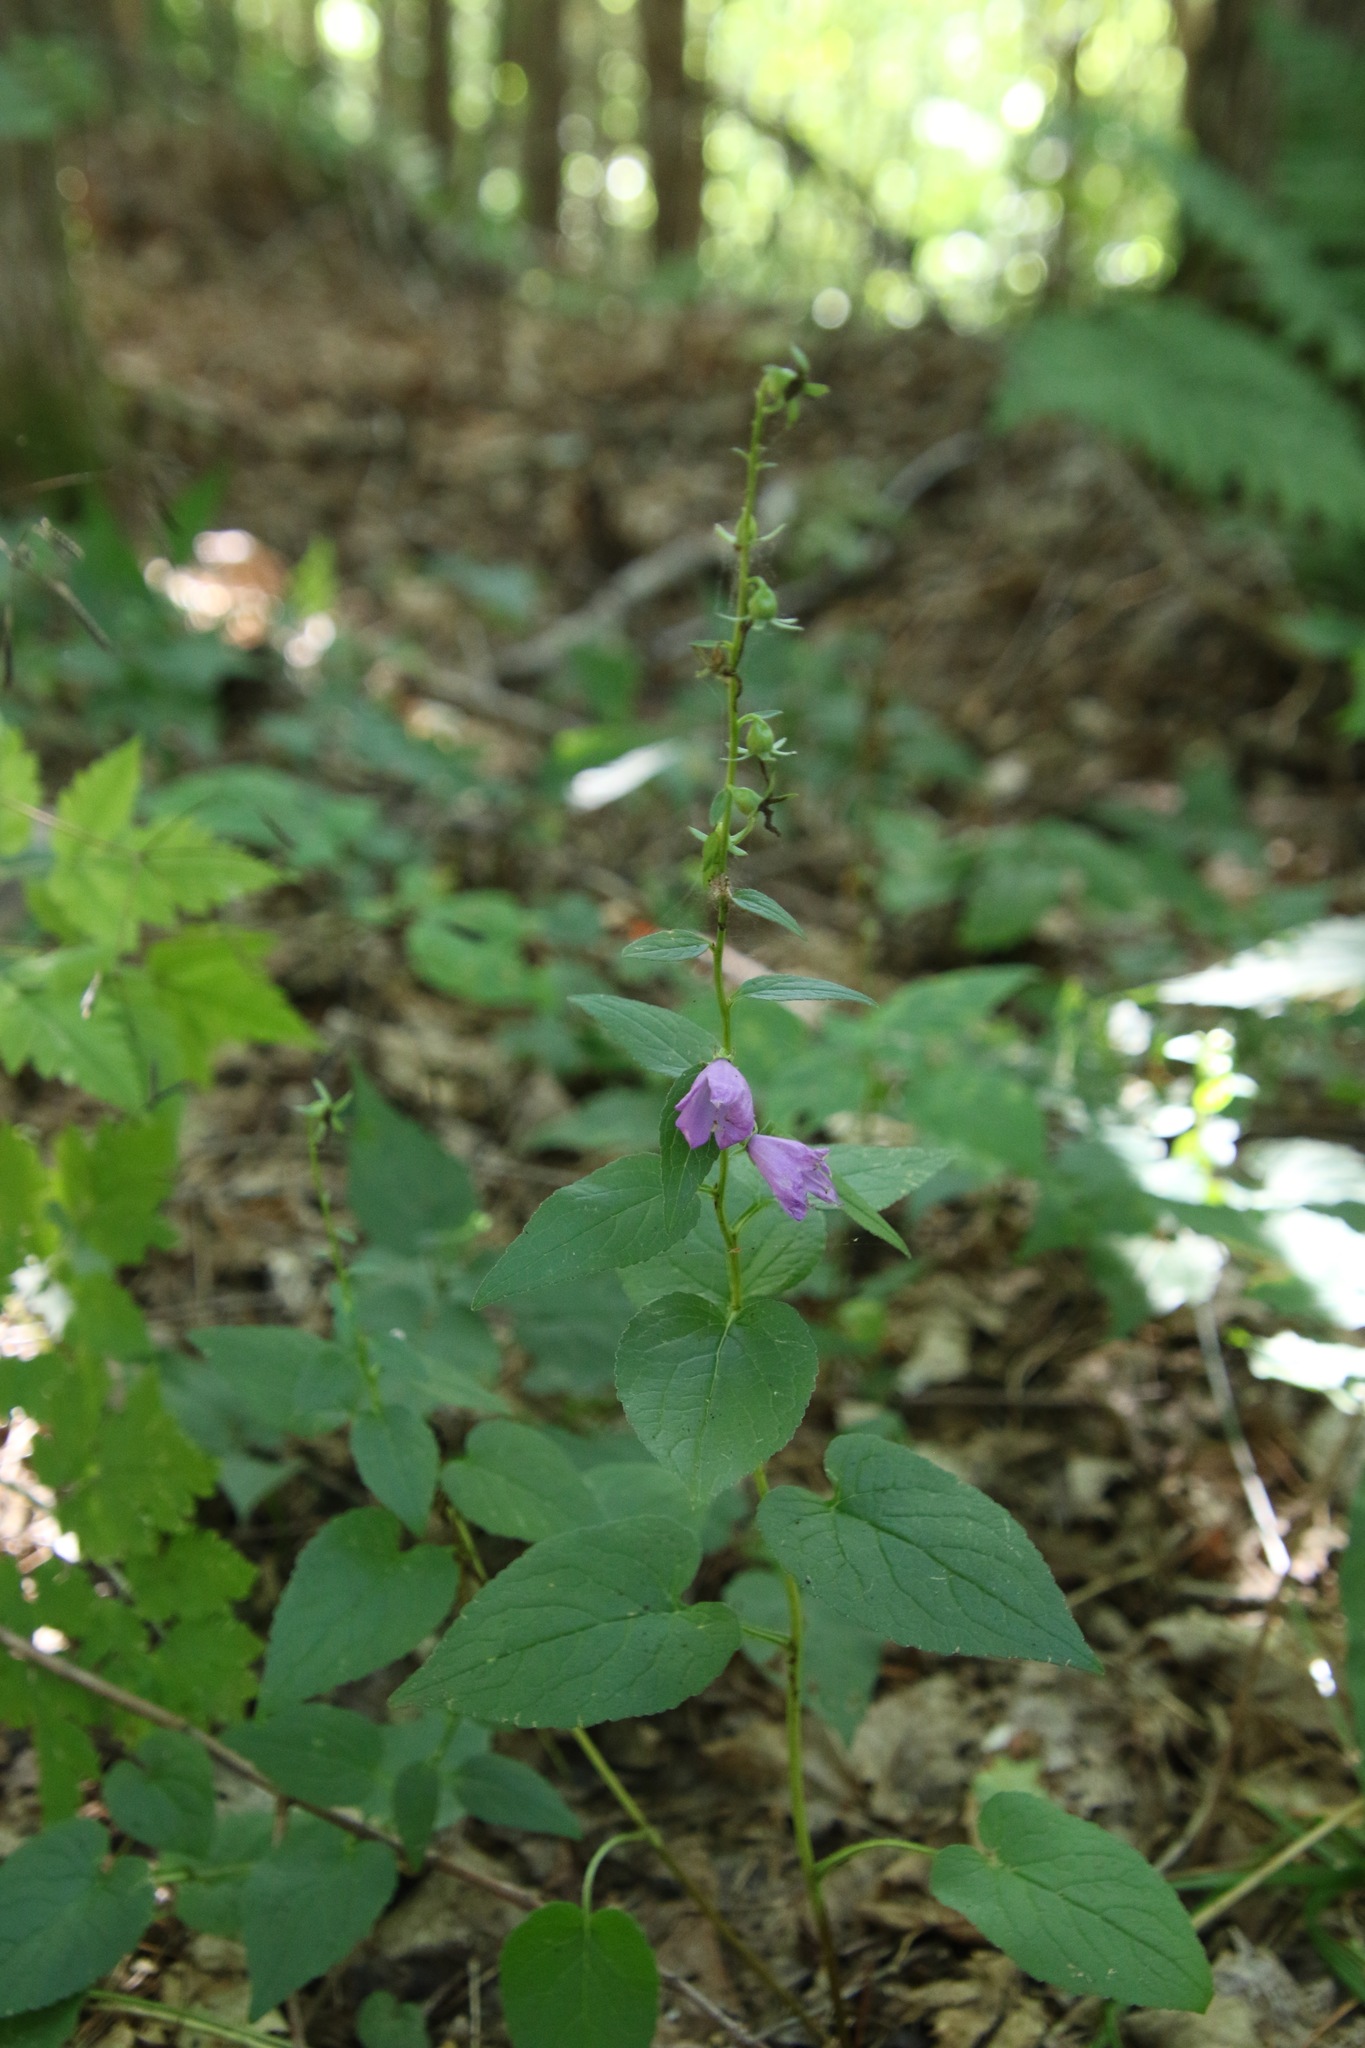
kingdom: Plantae
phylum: Tracheophyta
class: Magnoliopsida
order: Asterales
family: Campanulaceae
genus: Campanula
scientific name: Campanula rapunculoides
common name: Creeping bellflower
